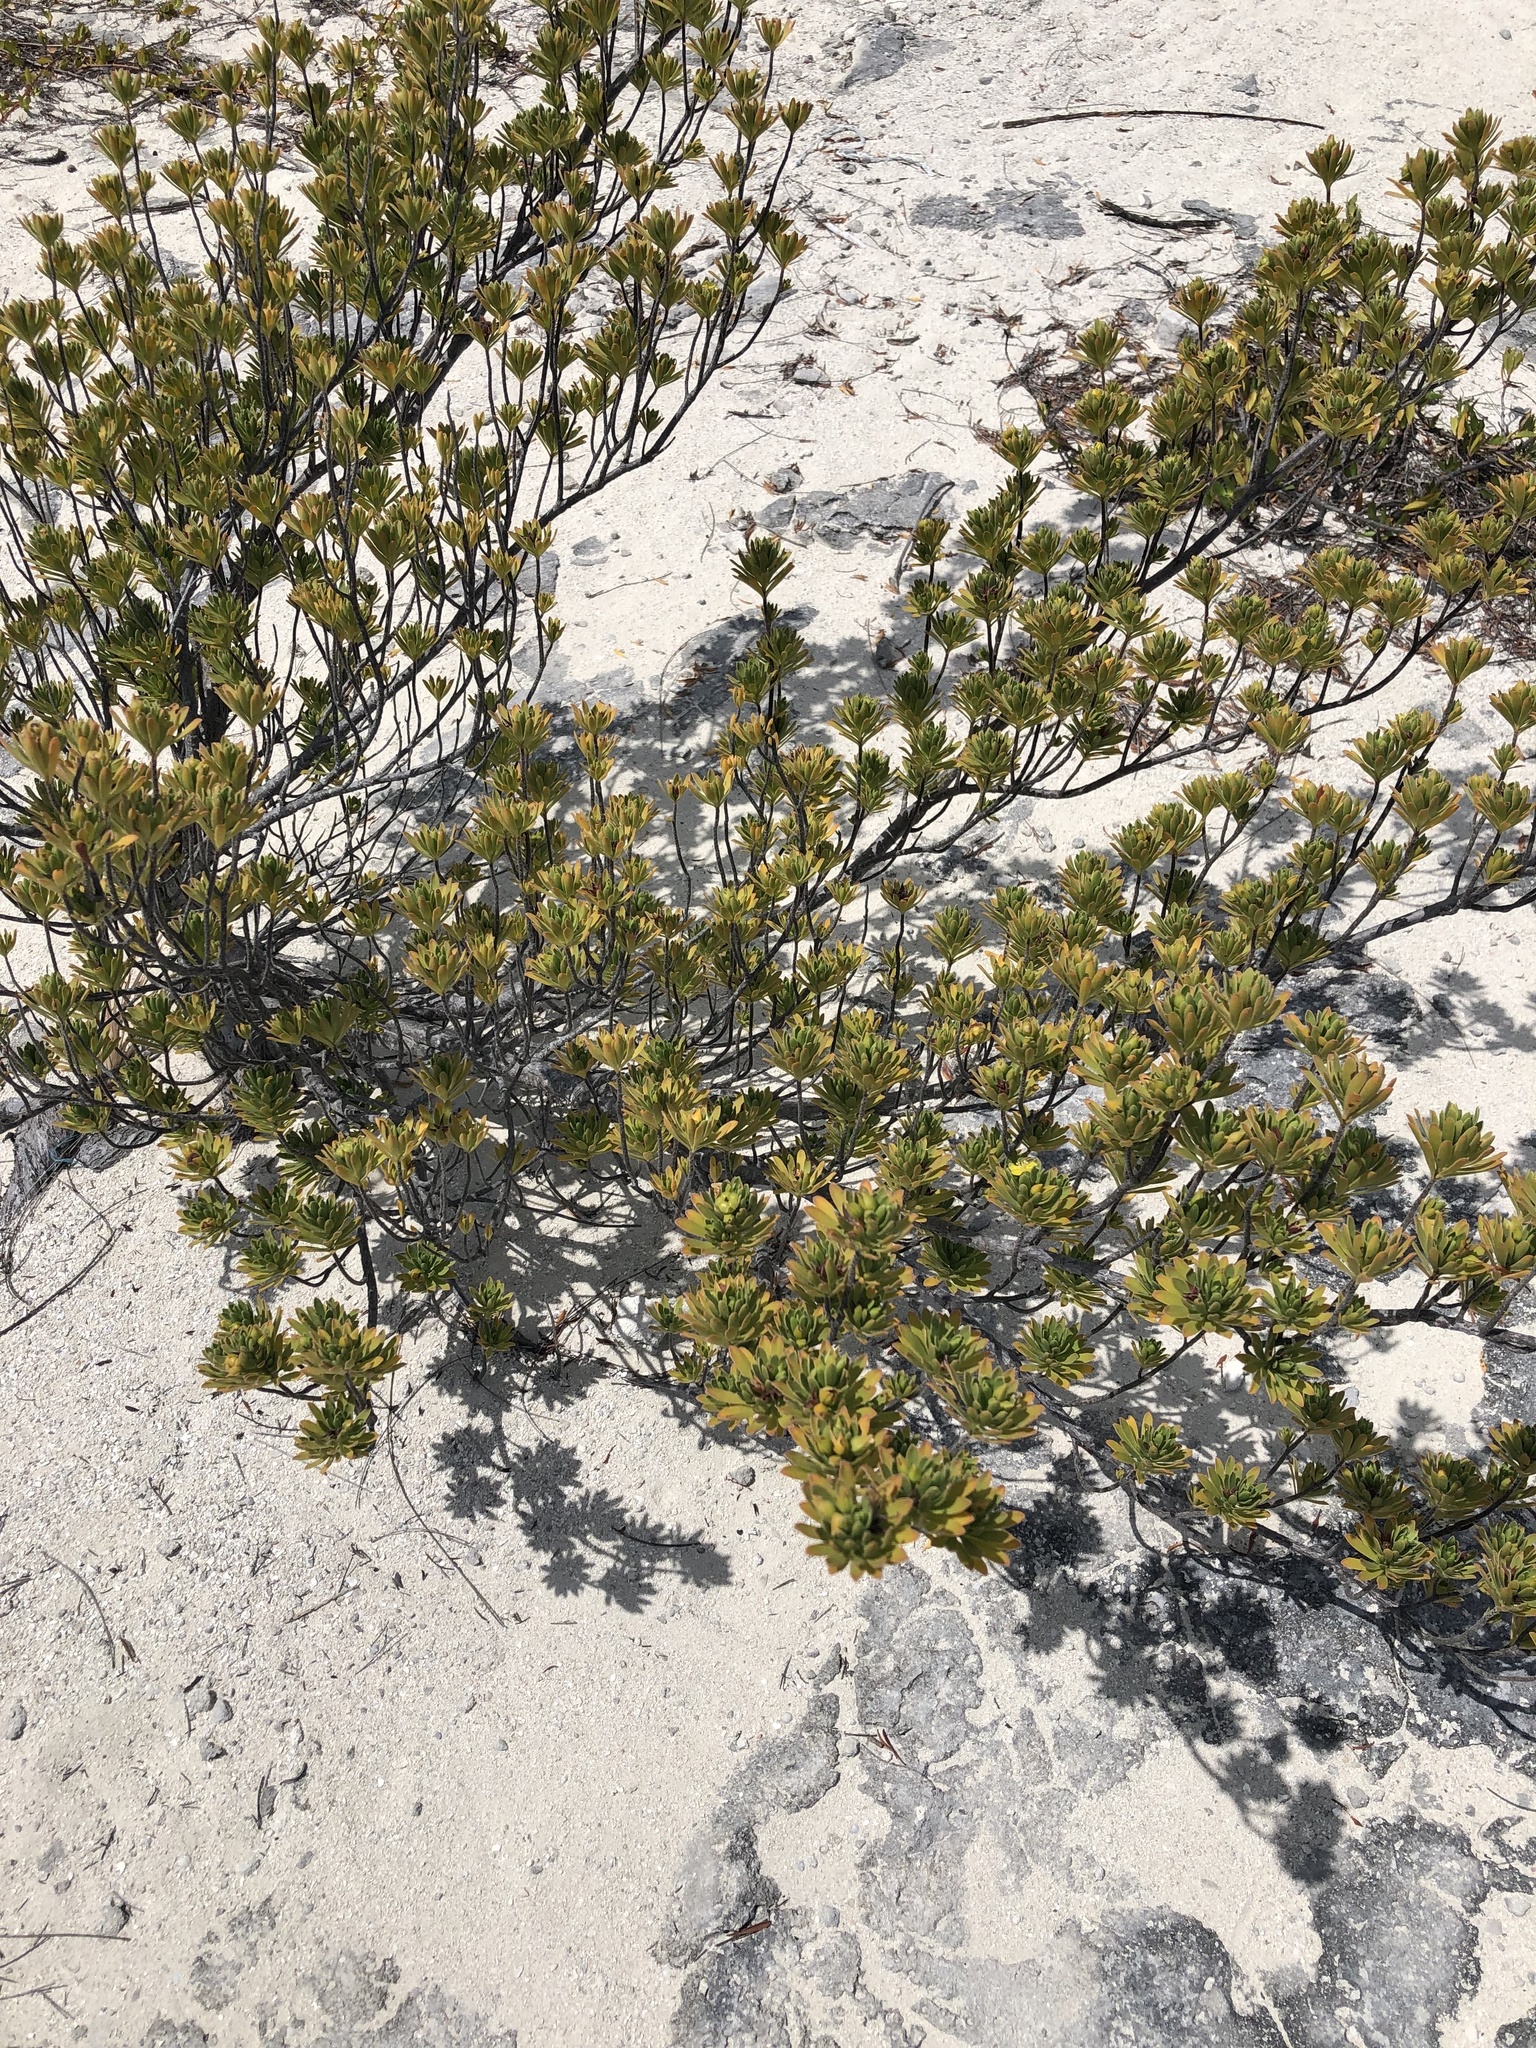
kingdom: Plantae
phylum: Tracheophyta
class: Magnoliopsida
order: Fabales
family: Surianaceae
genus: Suriana
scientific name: Suriana maritima
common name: Bay-cedar
